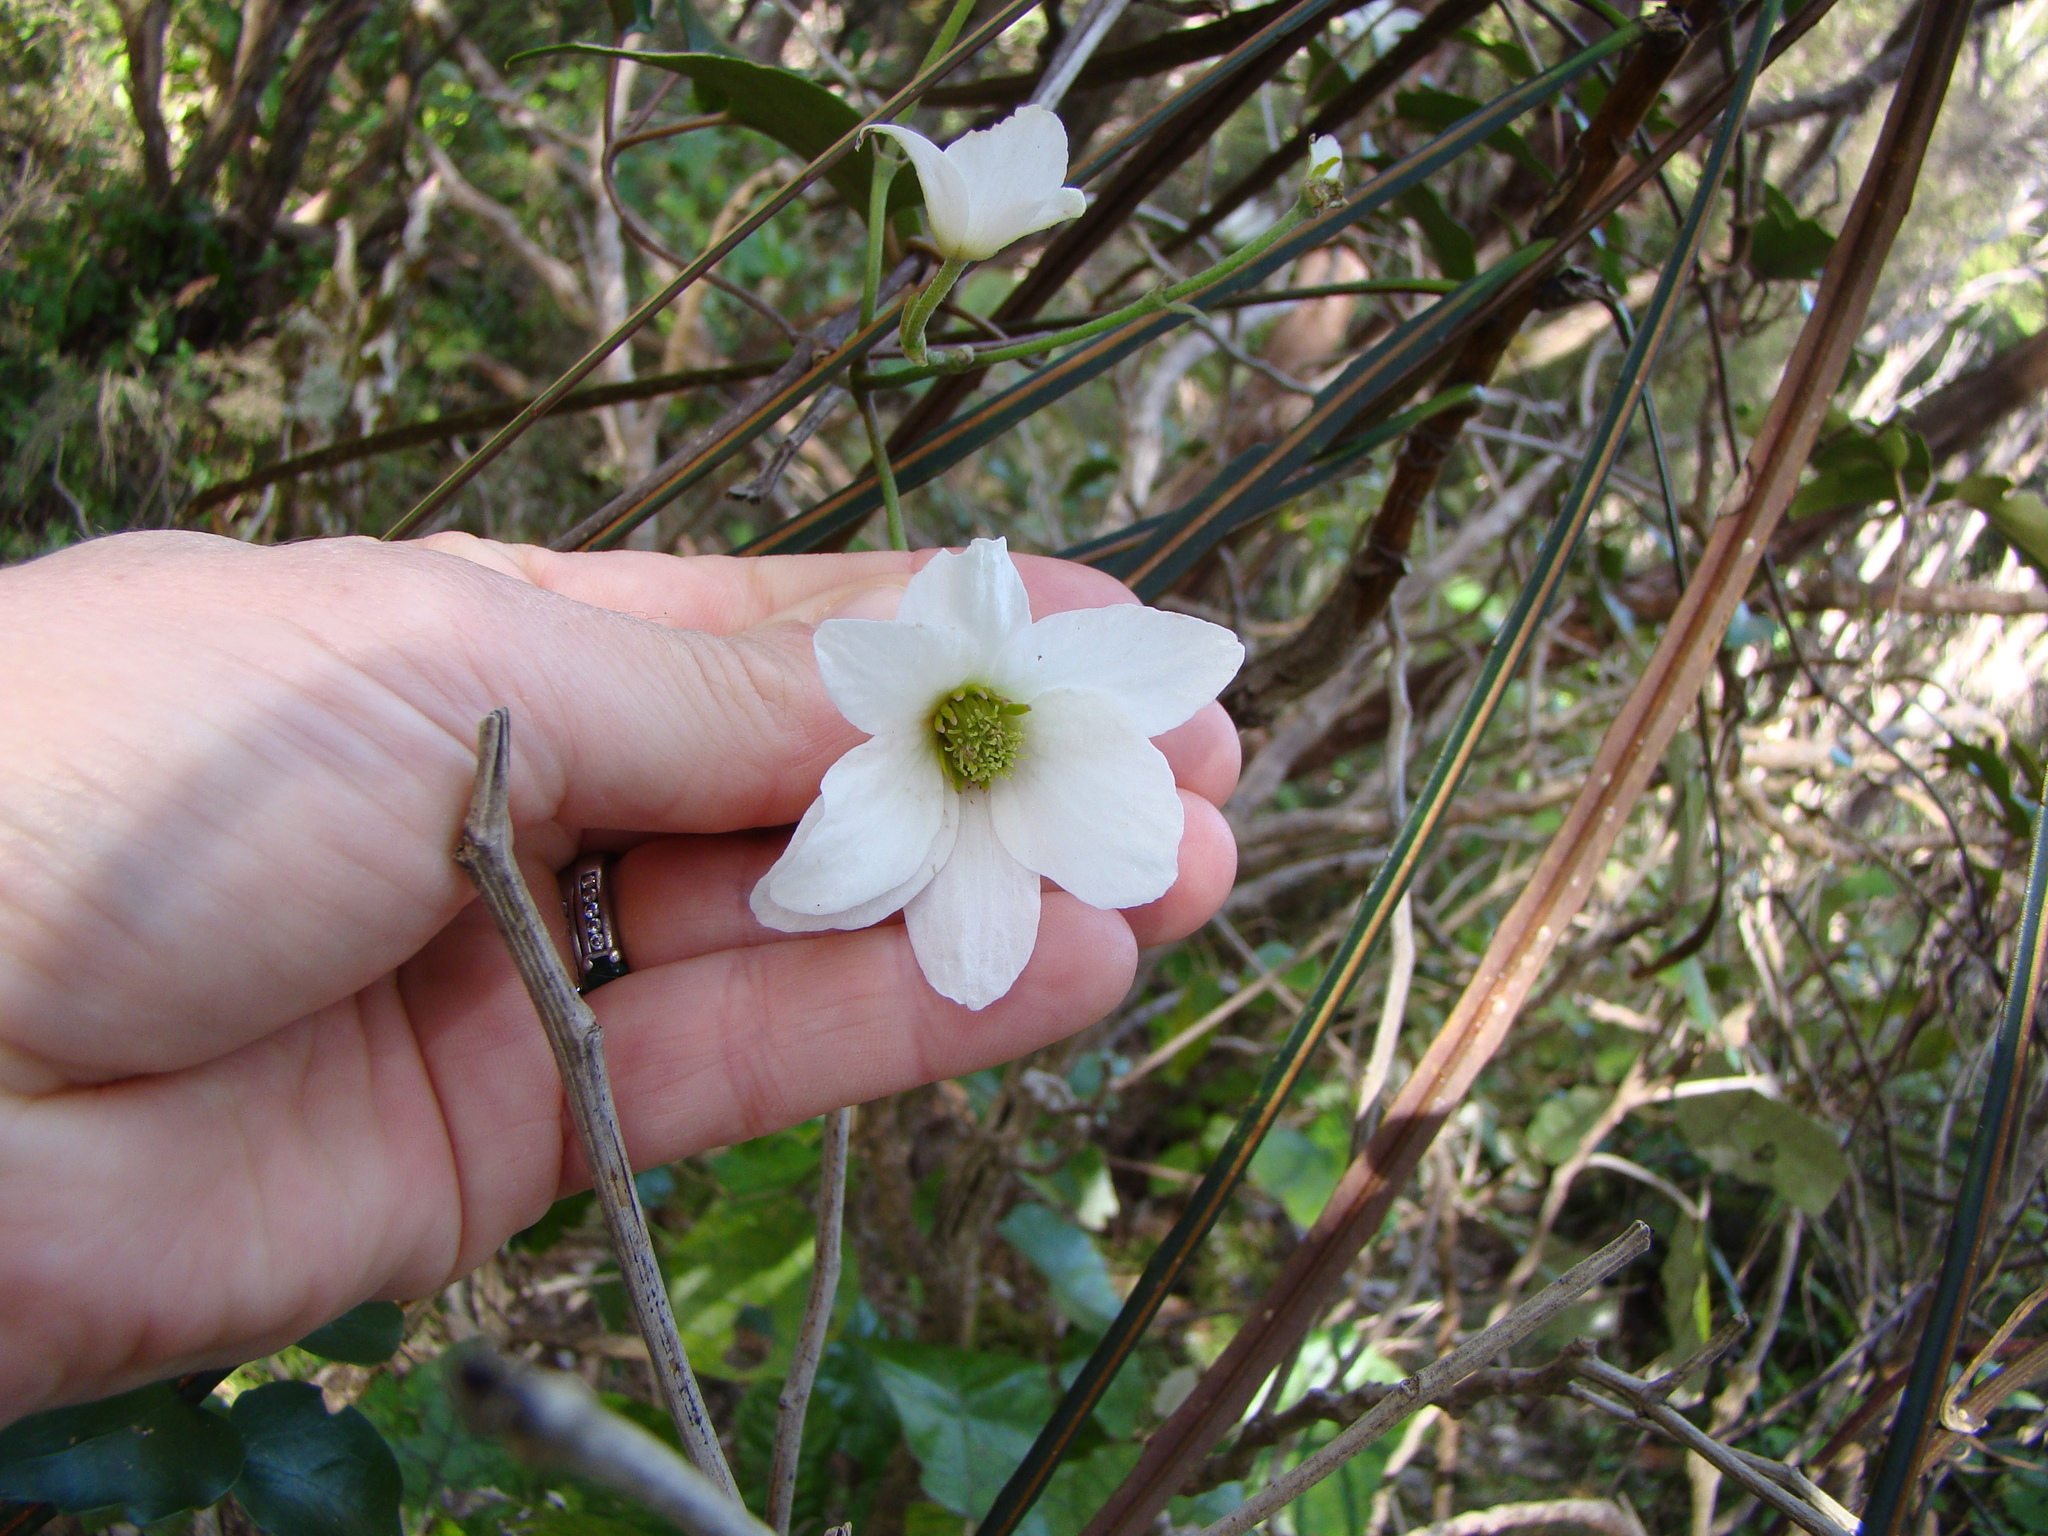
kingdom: Plantae
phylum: Tracheophyta
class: Magnoliopsida
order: Ranunculales
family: Ranunculaceae
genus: Clematis
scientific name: Clematis paniculata
